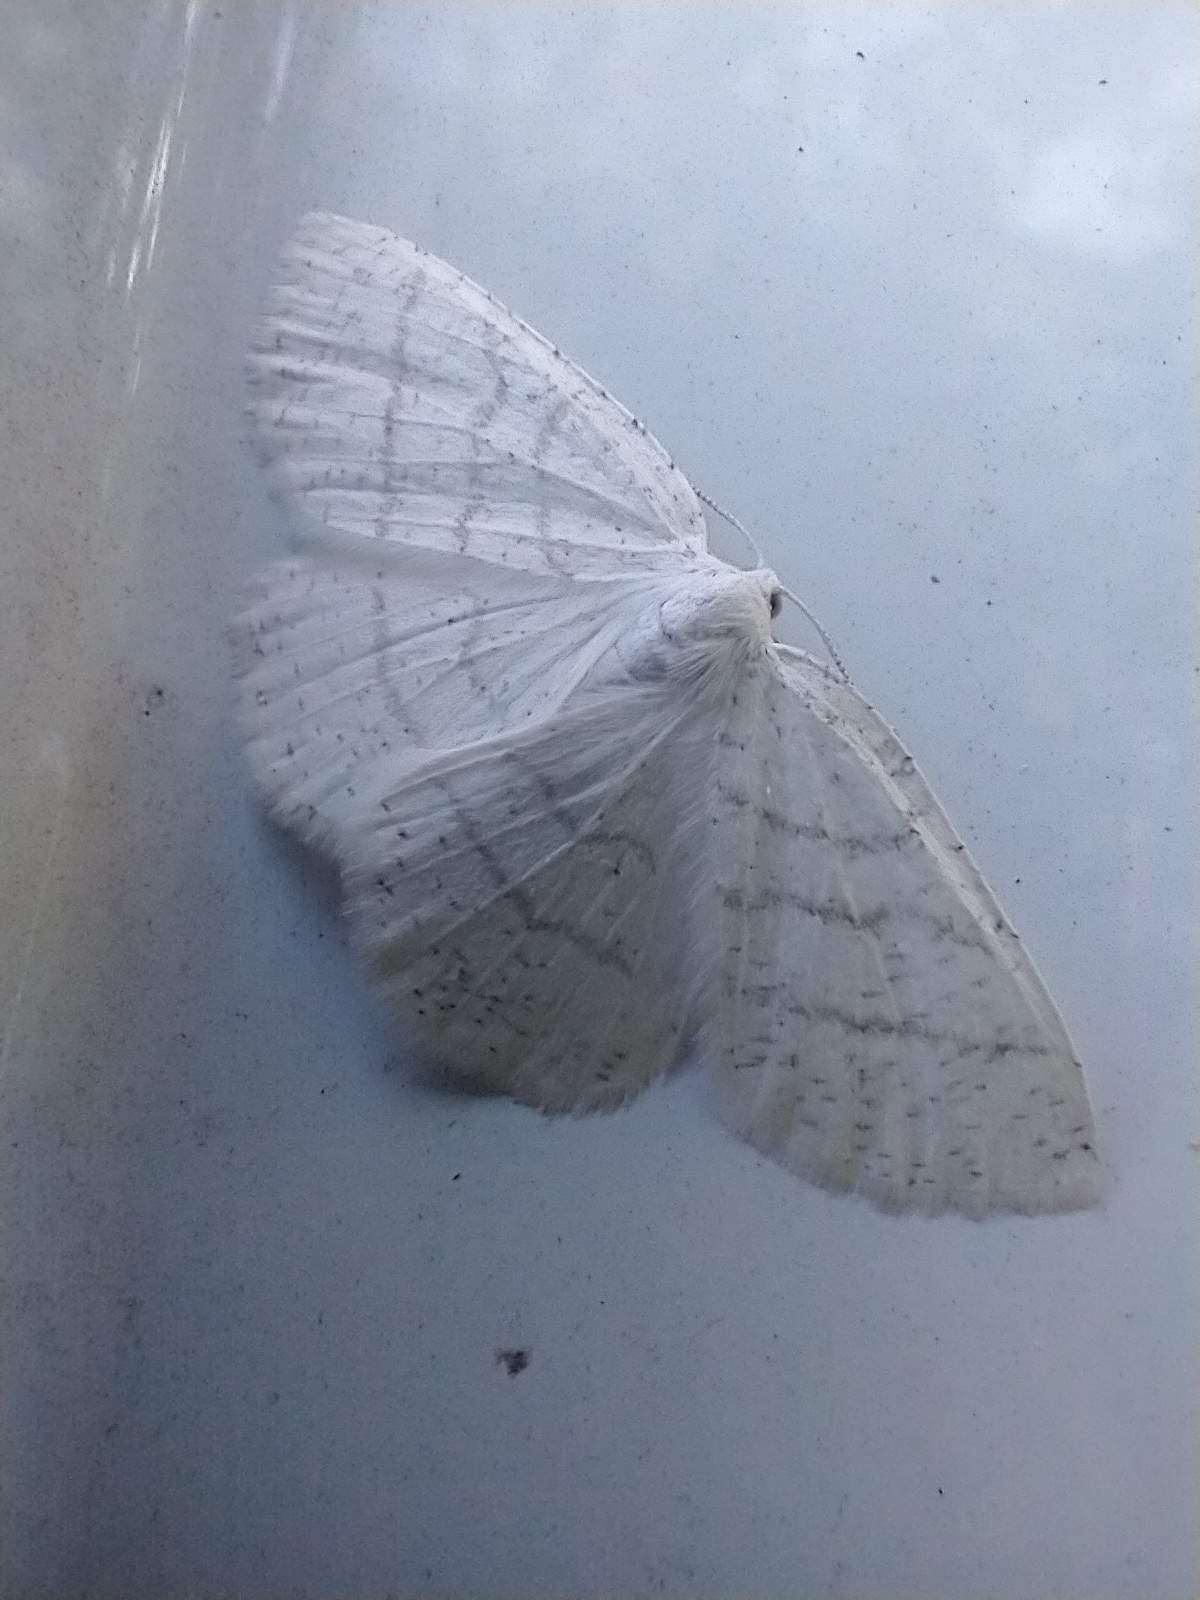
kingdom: Animalia
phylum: Arthropoda
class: Insecta
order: Lepidoptera
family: Geometridae
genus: Cabera
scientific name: Cabera pusaria
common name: Common white wave
